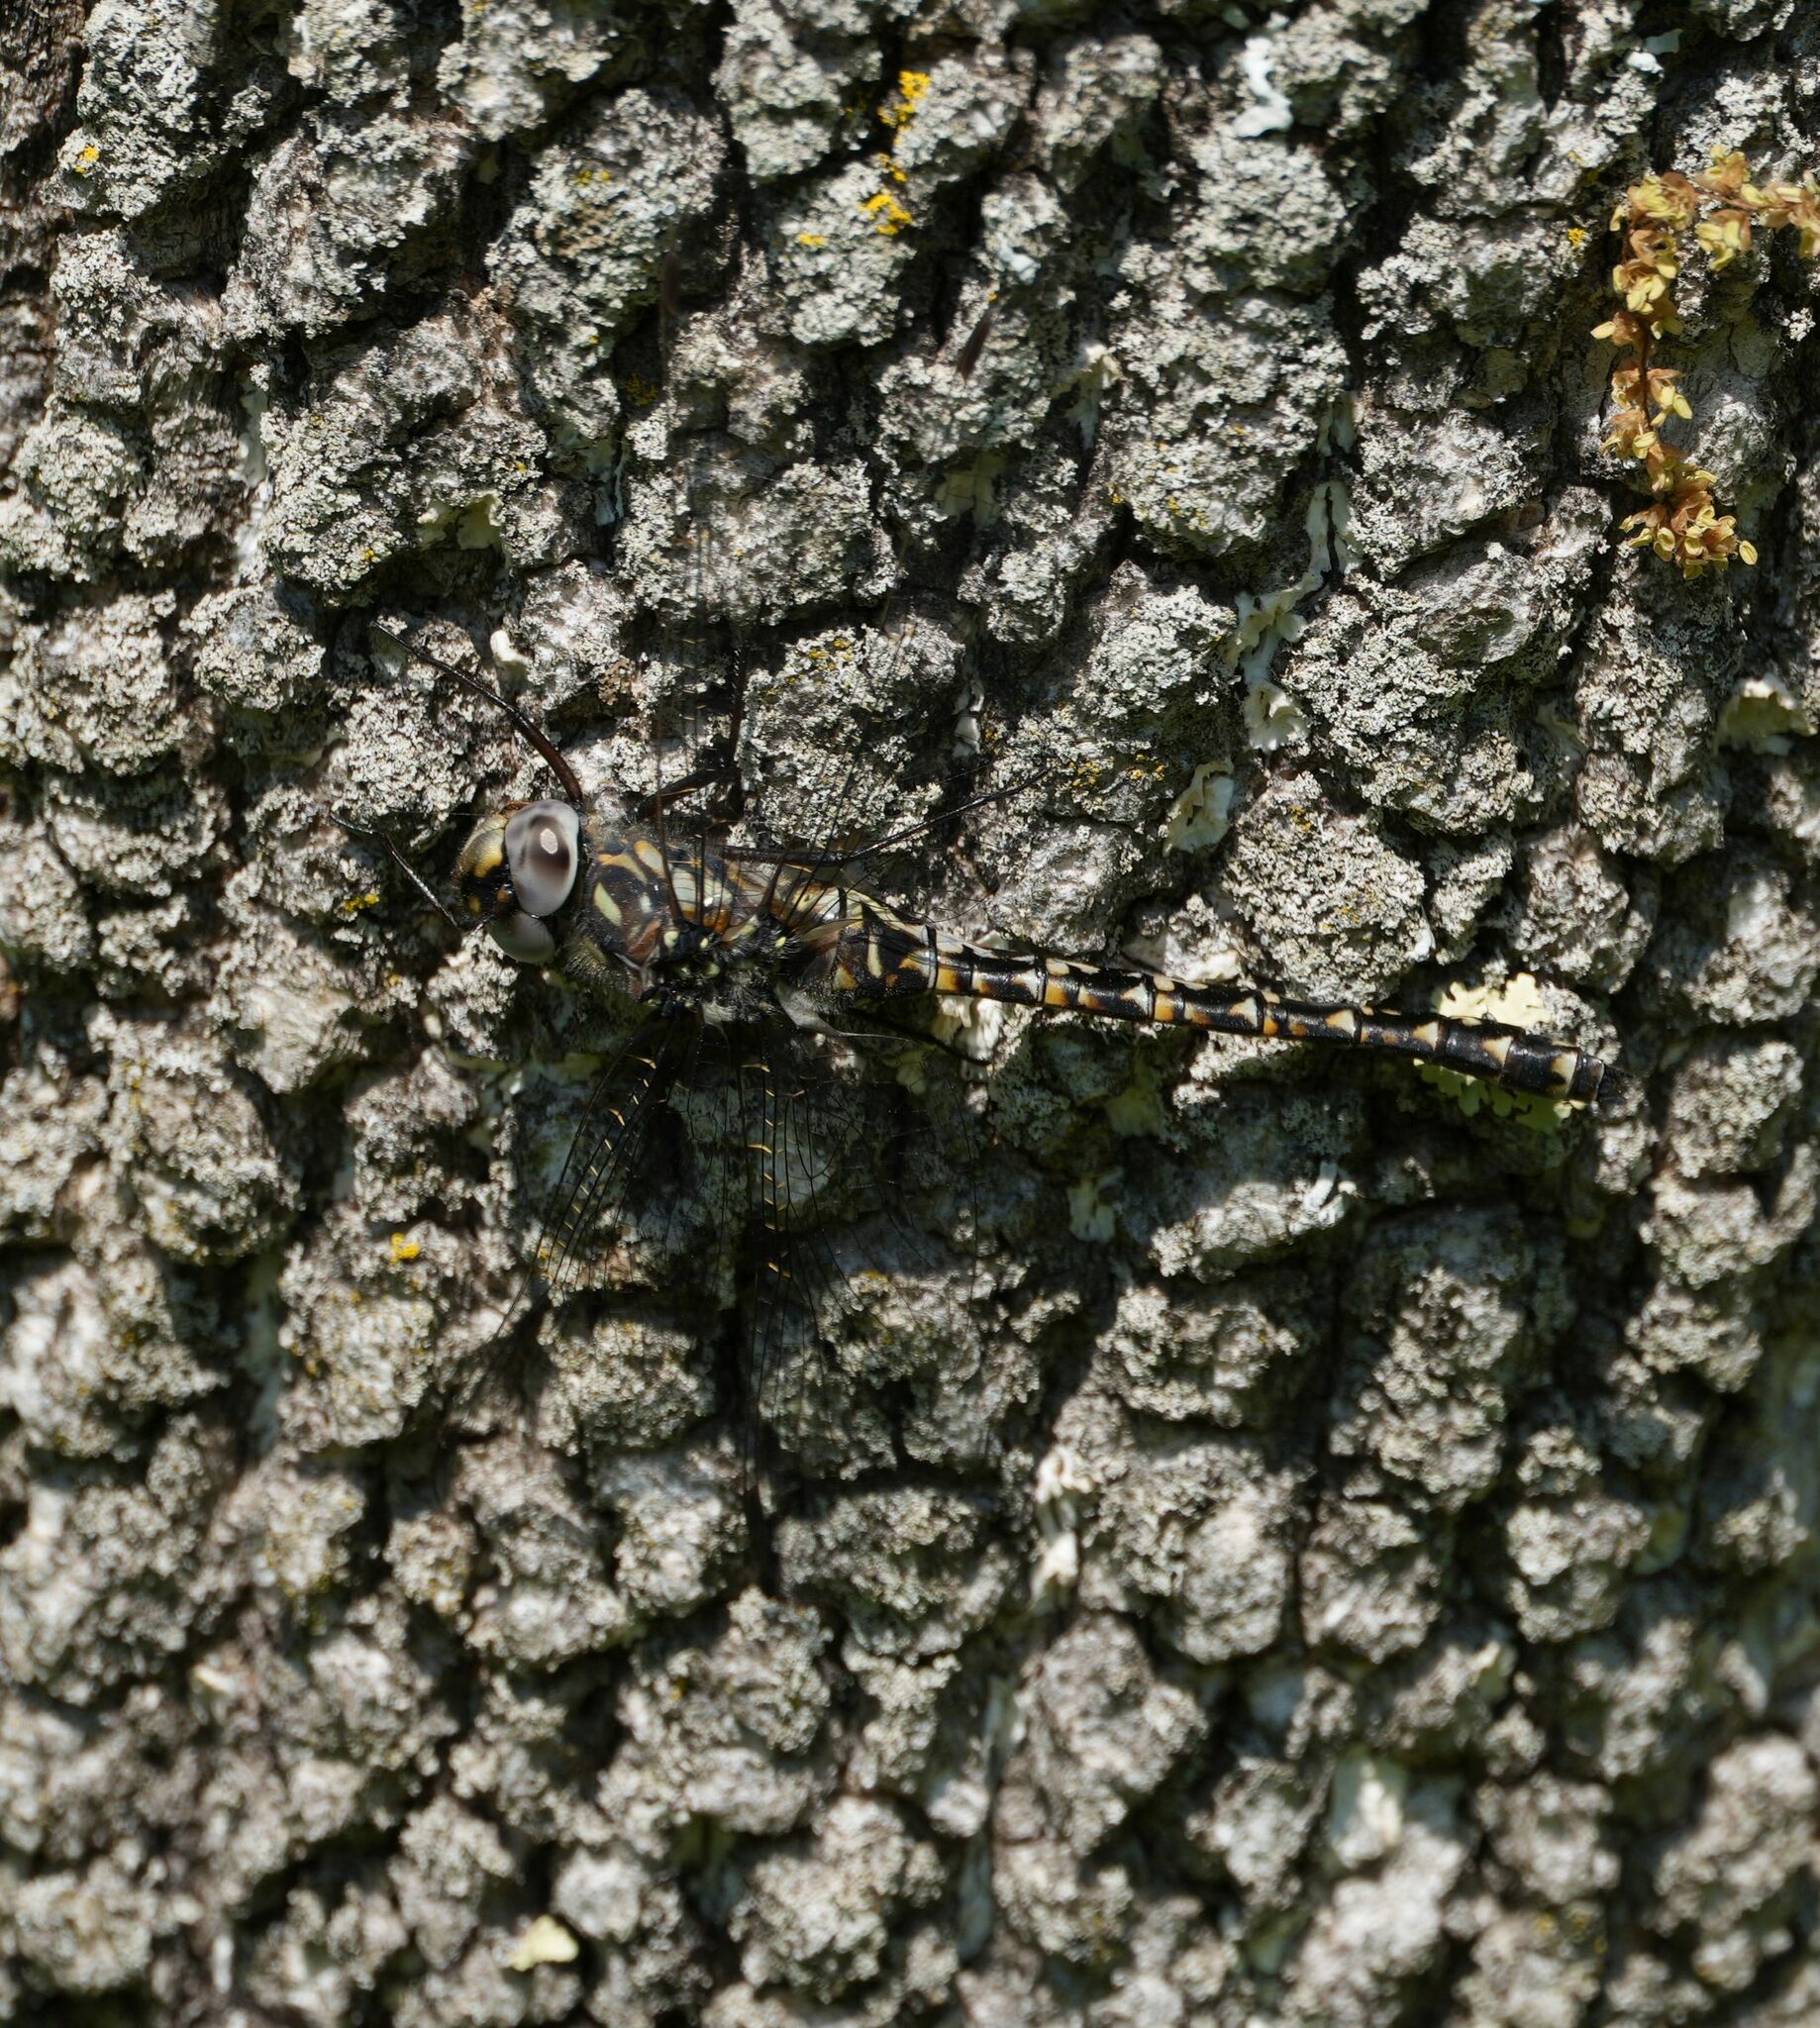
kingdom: Animalia
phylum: Arthropoda
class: Insecta
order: Odonata
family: Aeshnidae
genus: Gomphaeschna
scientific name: Gomphaeschna furcillata
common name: Harlequin darner
